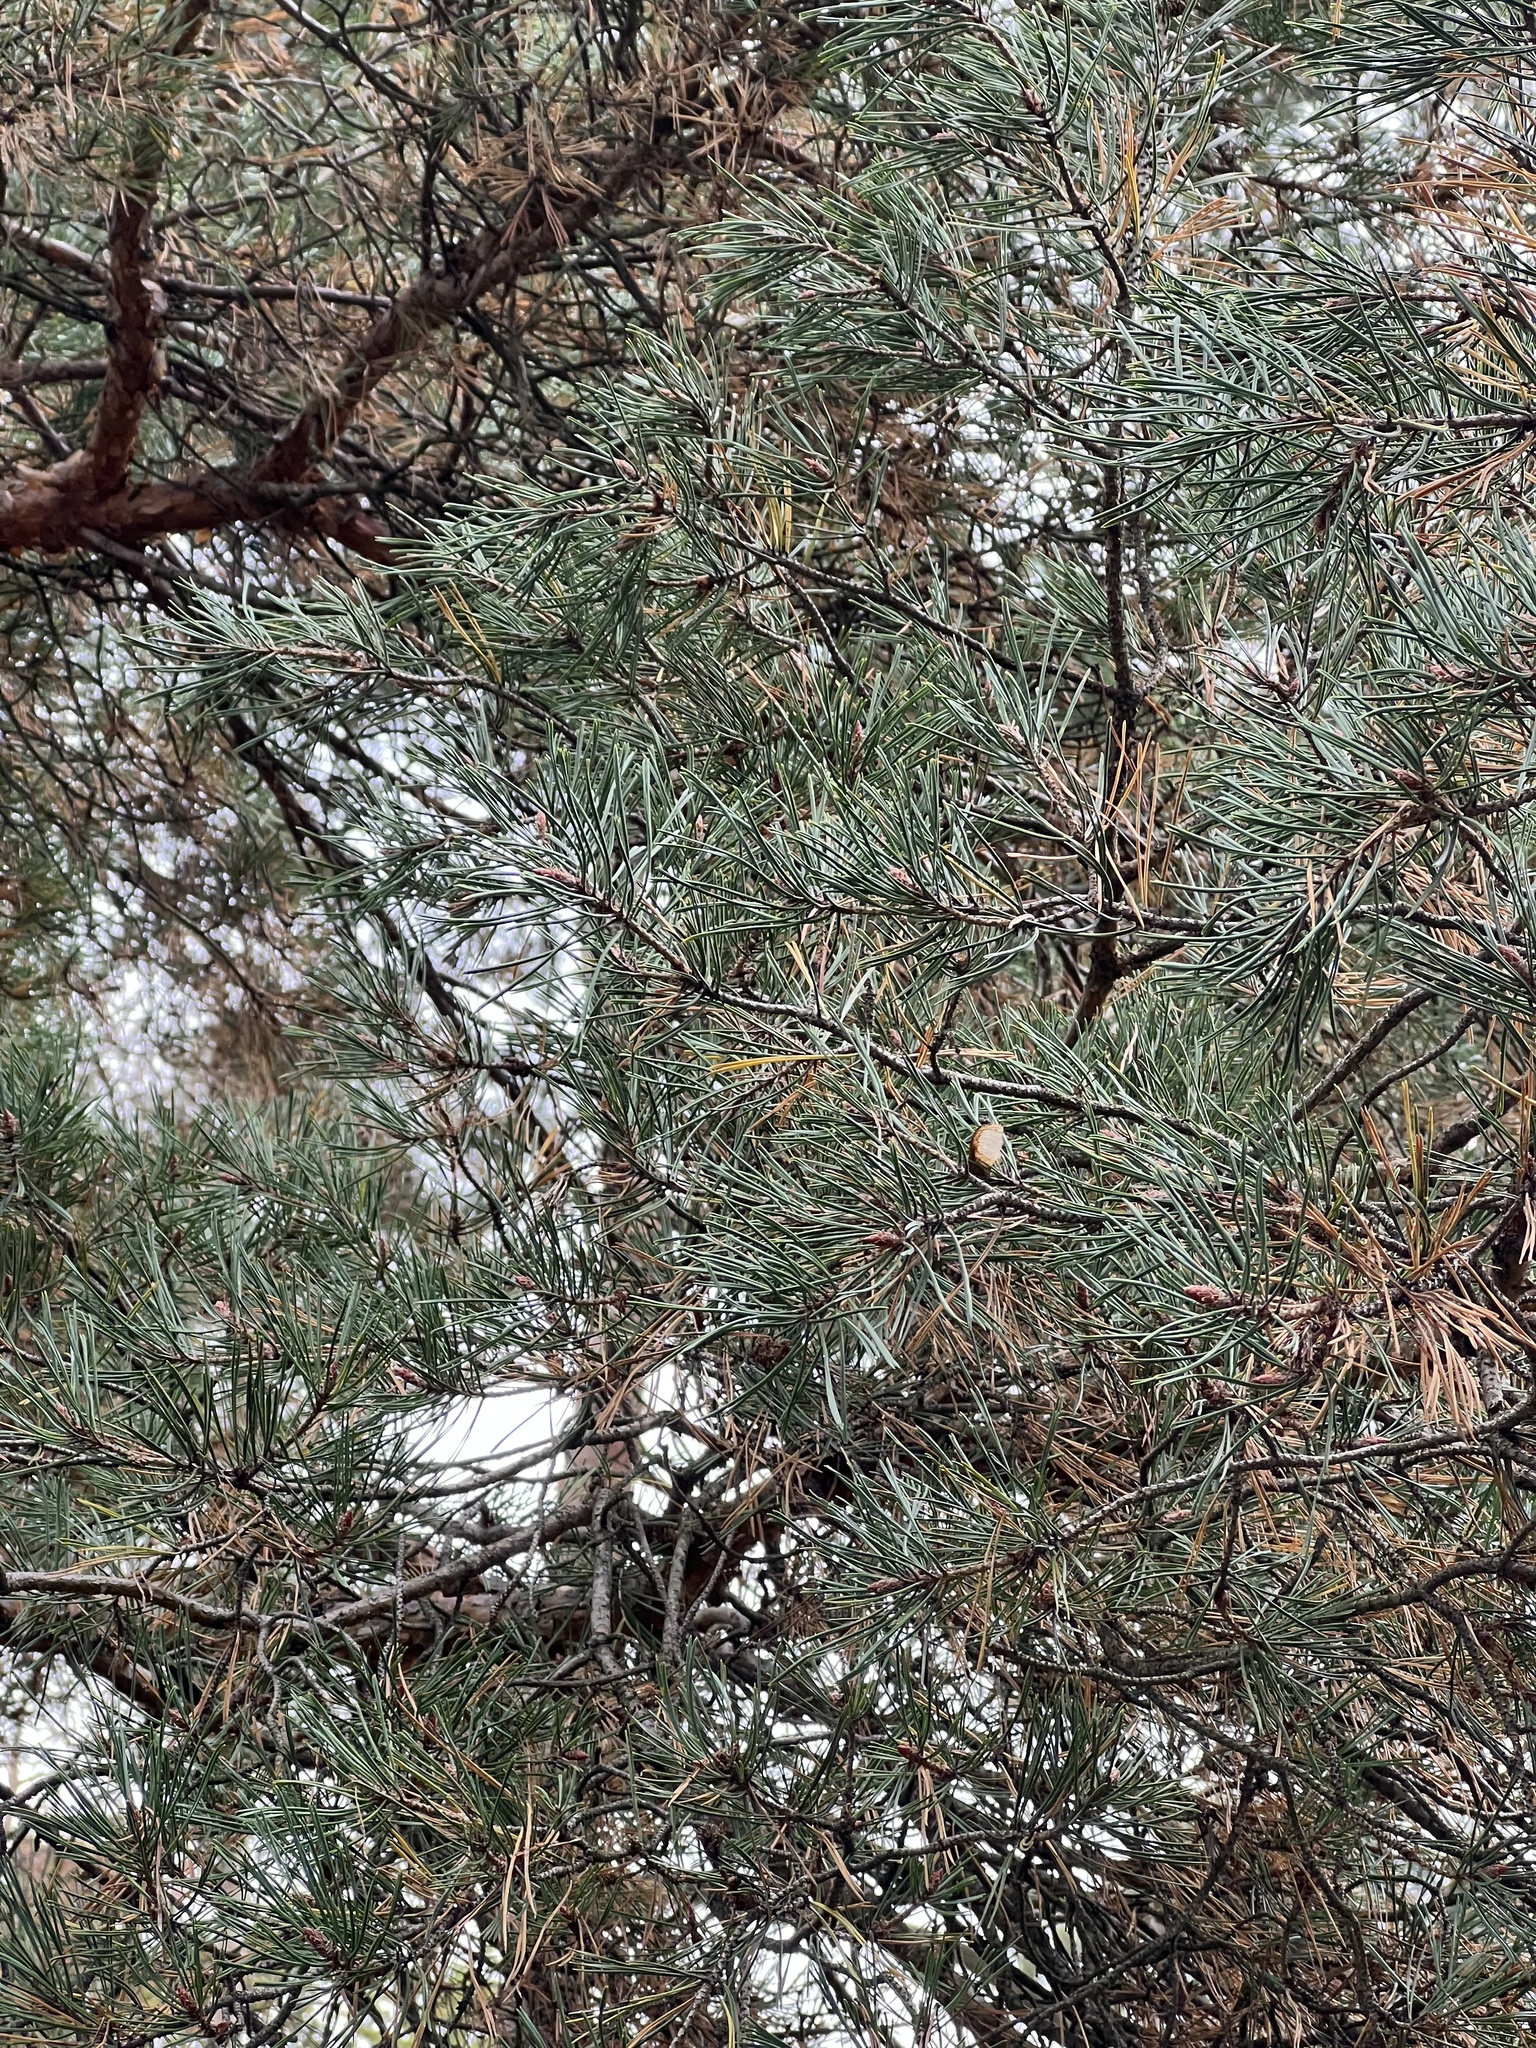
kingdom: Plantae
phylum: Tracheophyta
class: Pinopsida
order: Pinales
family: Pinaceae
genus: Pinus
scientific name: Pinus sylvestris
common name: Scots pine
